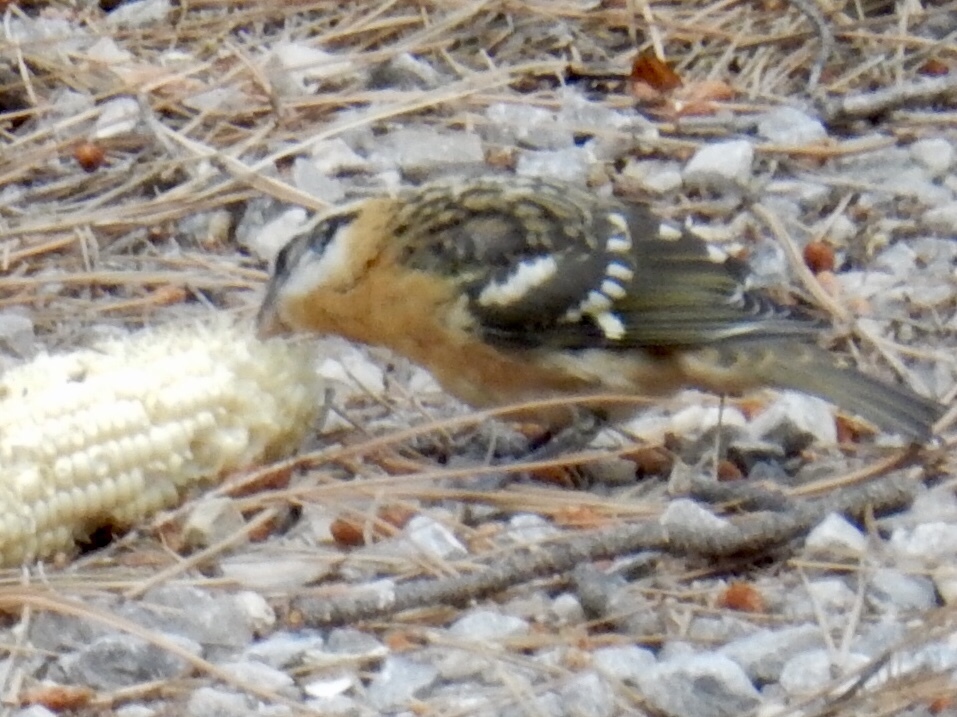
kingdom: Animalia
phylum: Chordata
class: Aves
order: Passeriformes
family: Cardinalidae
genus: Pheucticus
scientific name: Pheucticus melanocephalus
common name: Black-headed grosbeak
